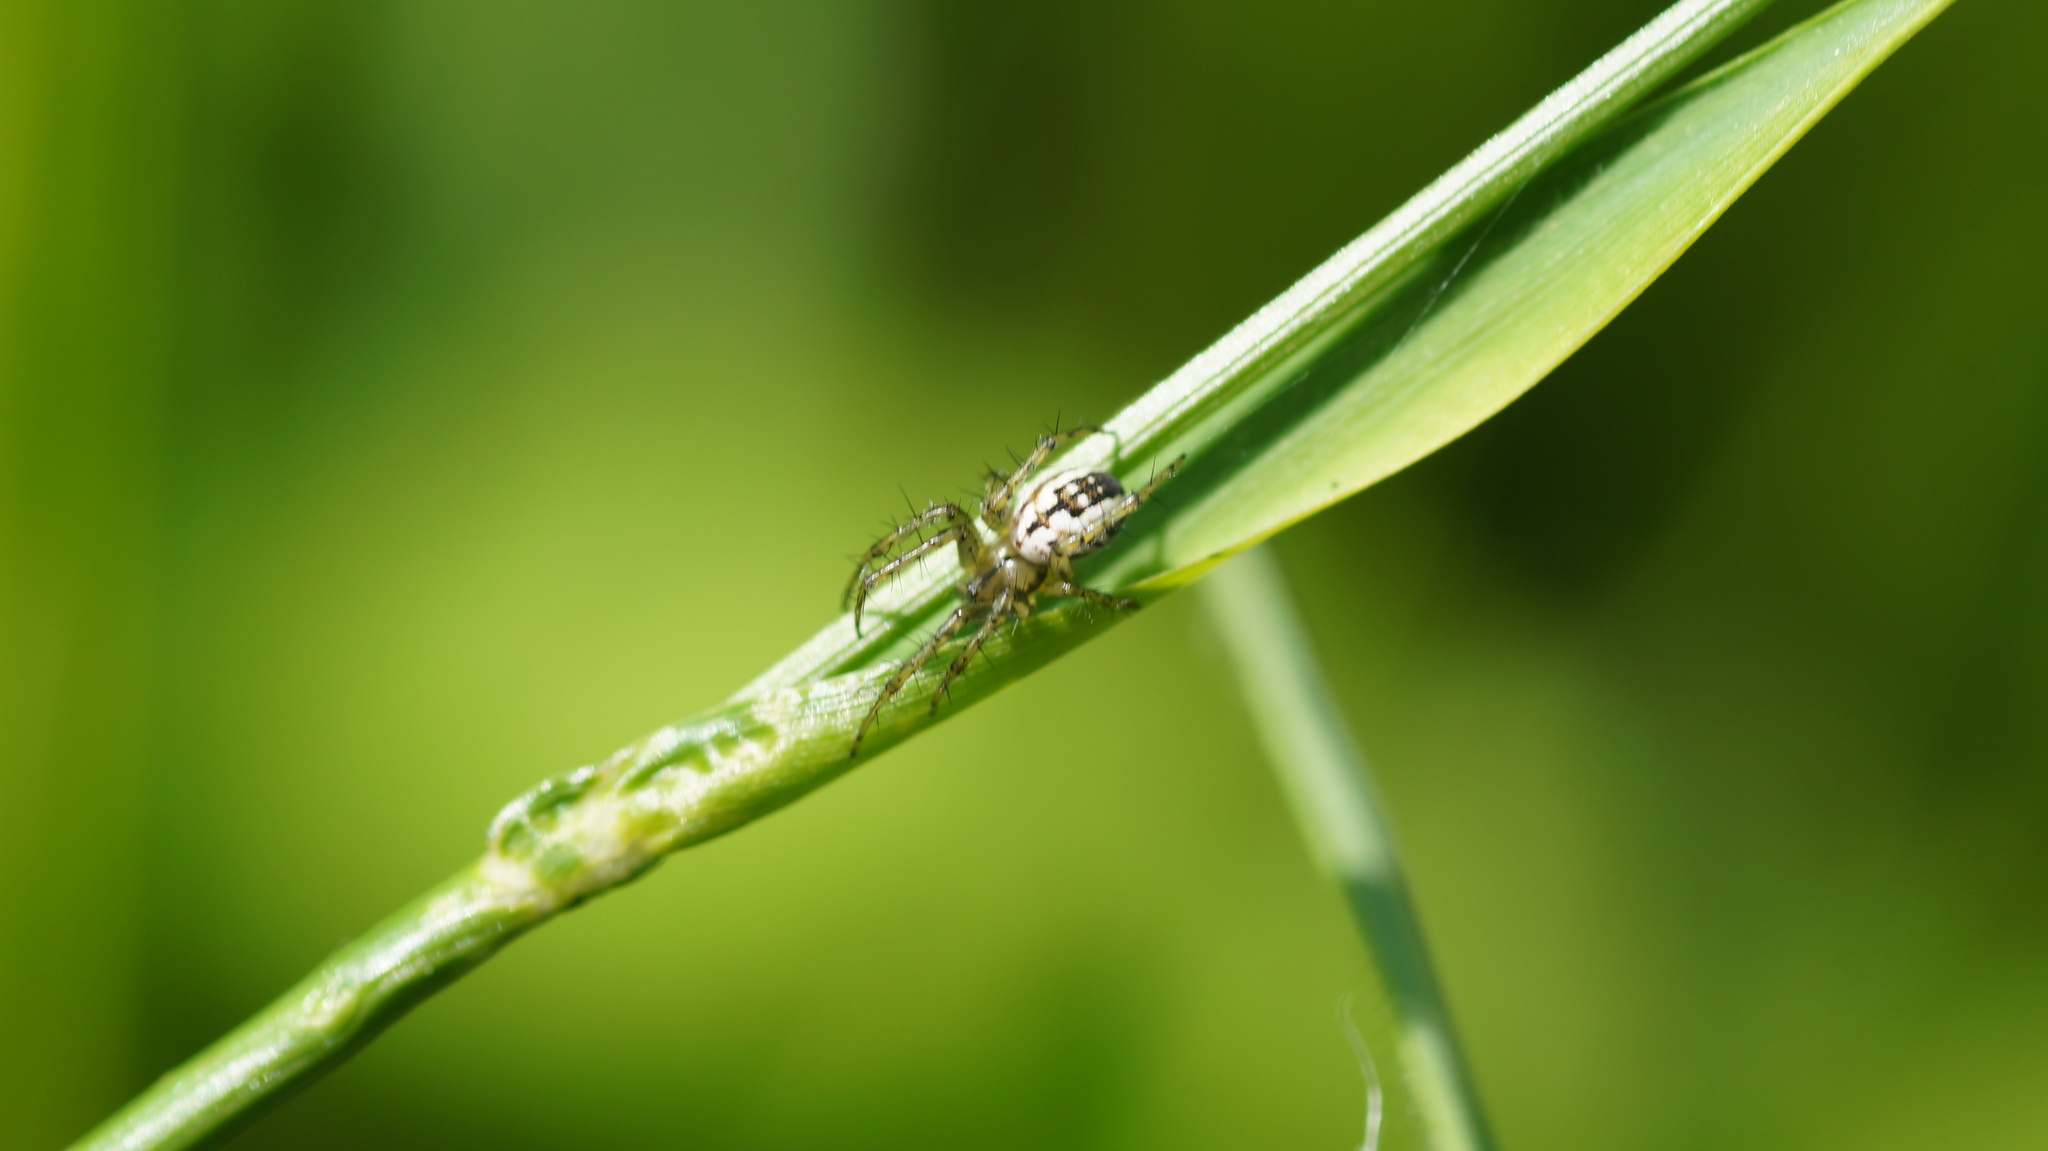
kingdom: Animalia
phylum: Arthropoda
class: Arachnida
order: Araneae
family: Araneidae
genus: Mangora
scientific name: Mangora acalypha
